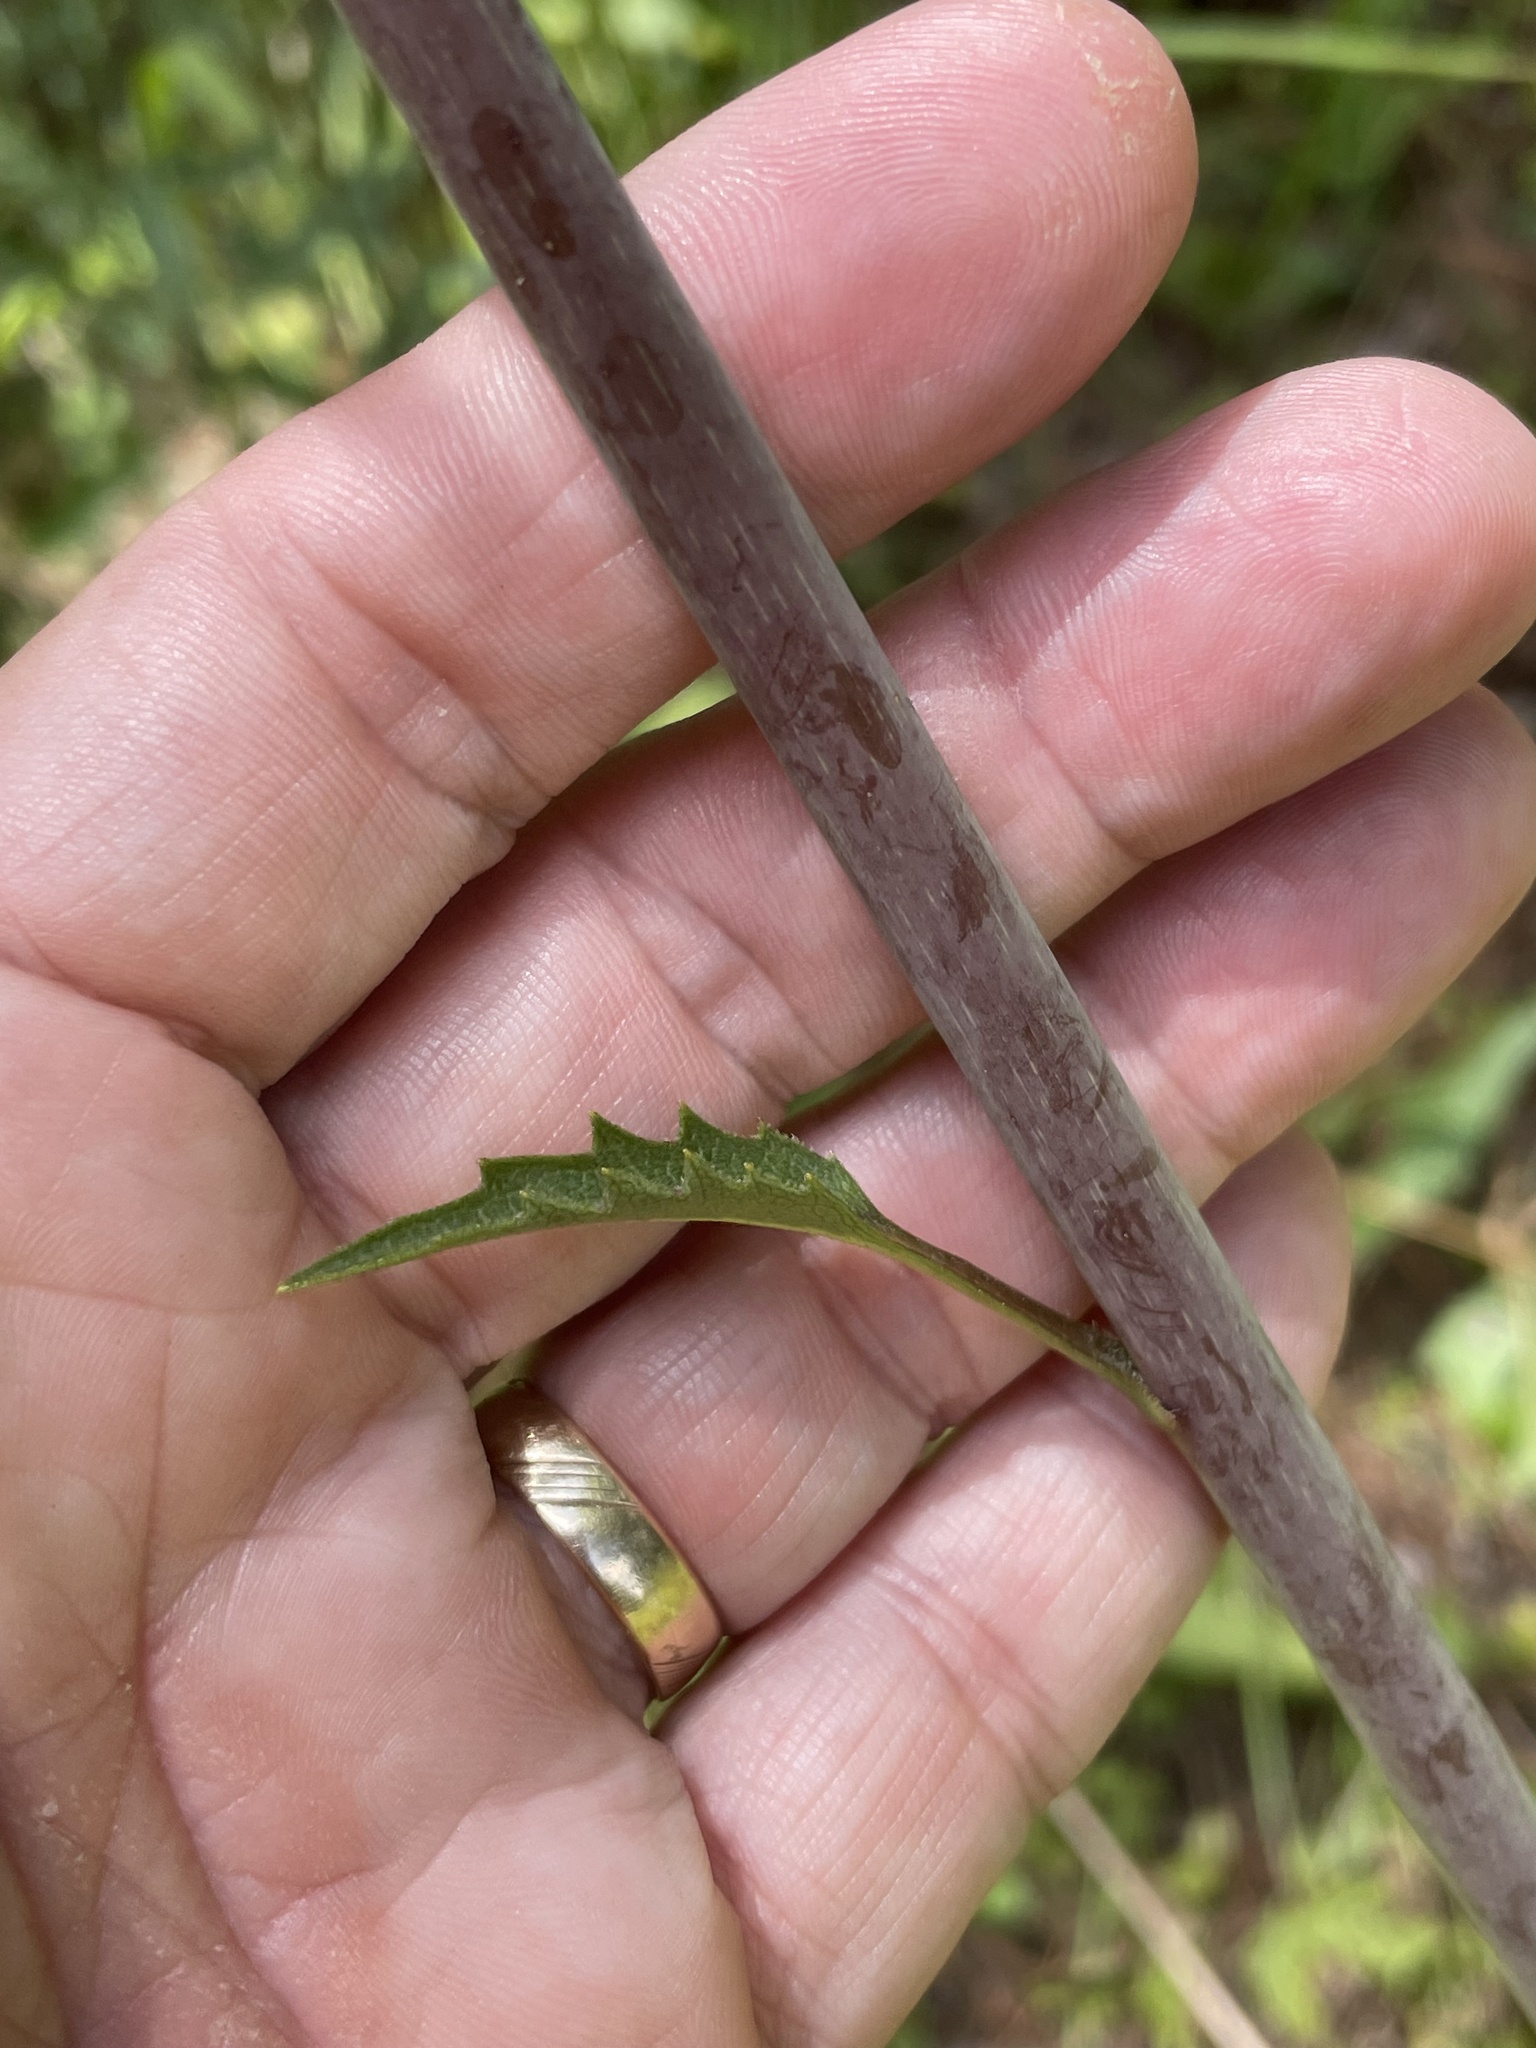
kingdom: Plantae
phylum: Tracheophyta
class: Magnoliopsida
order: Asterales
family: Asteraceae
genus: Silphium
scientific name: Silphium compositum
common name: Lesser basal-leaf rosinweed
